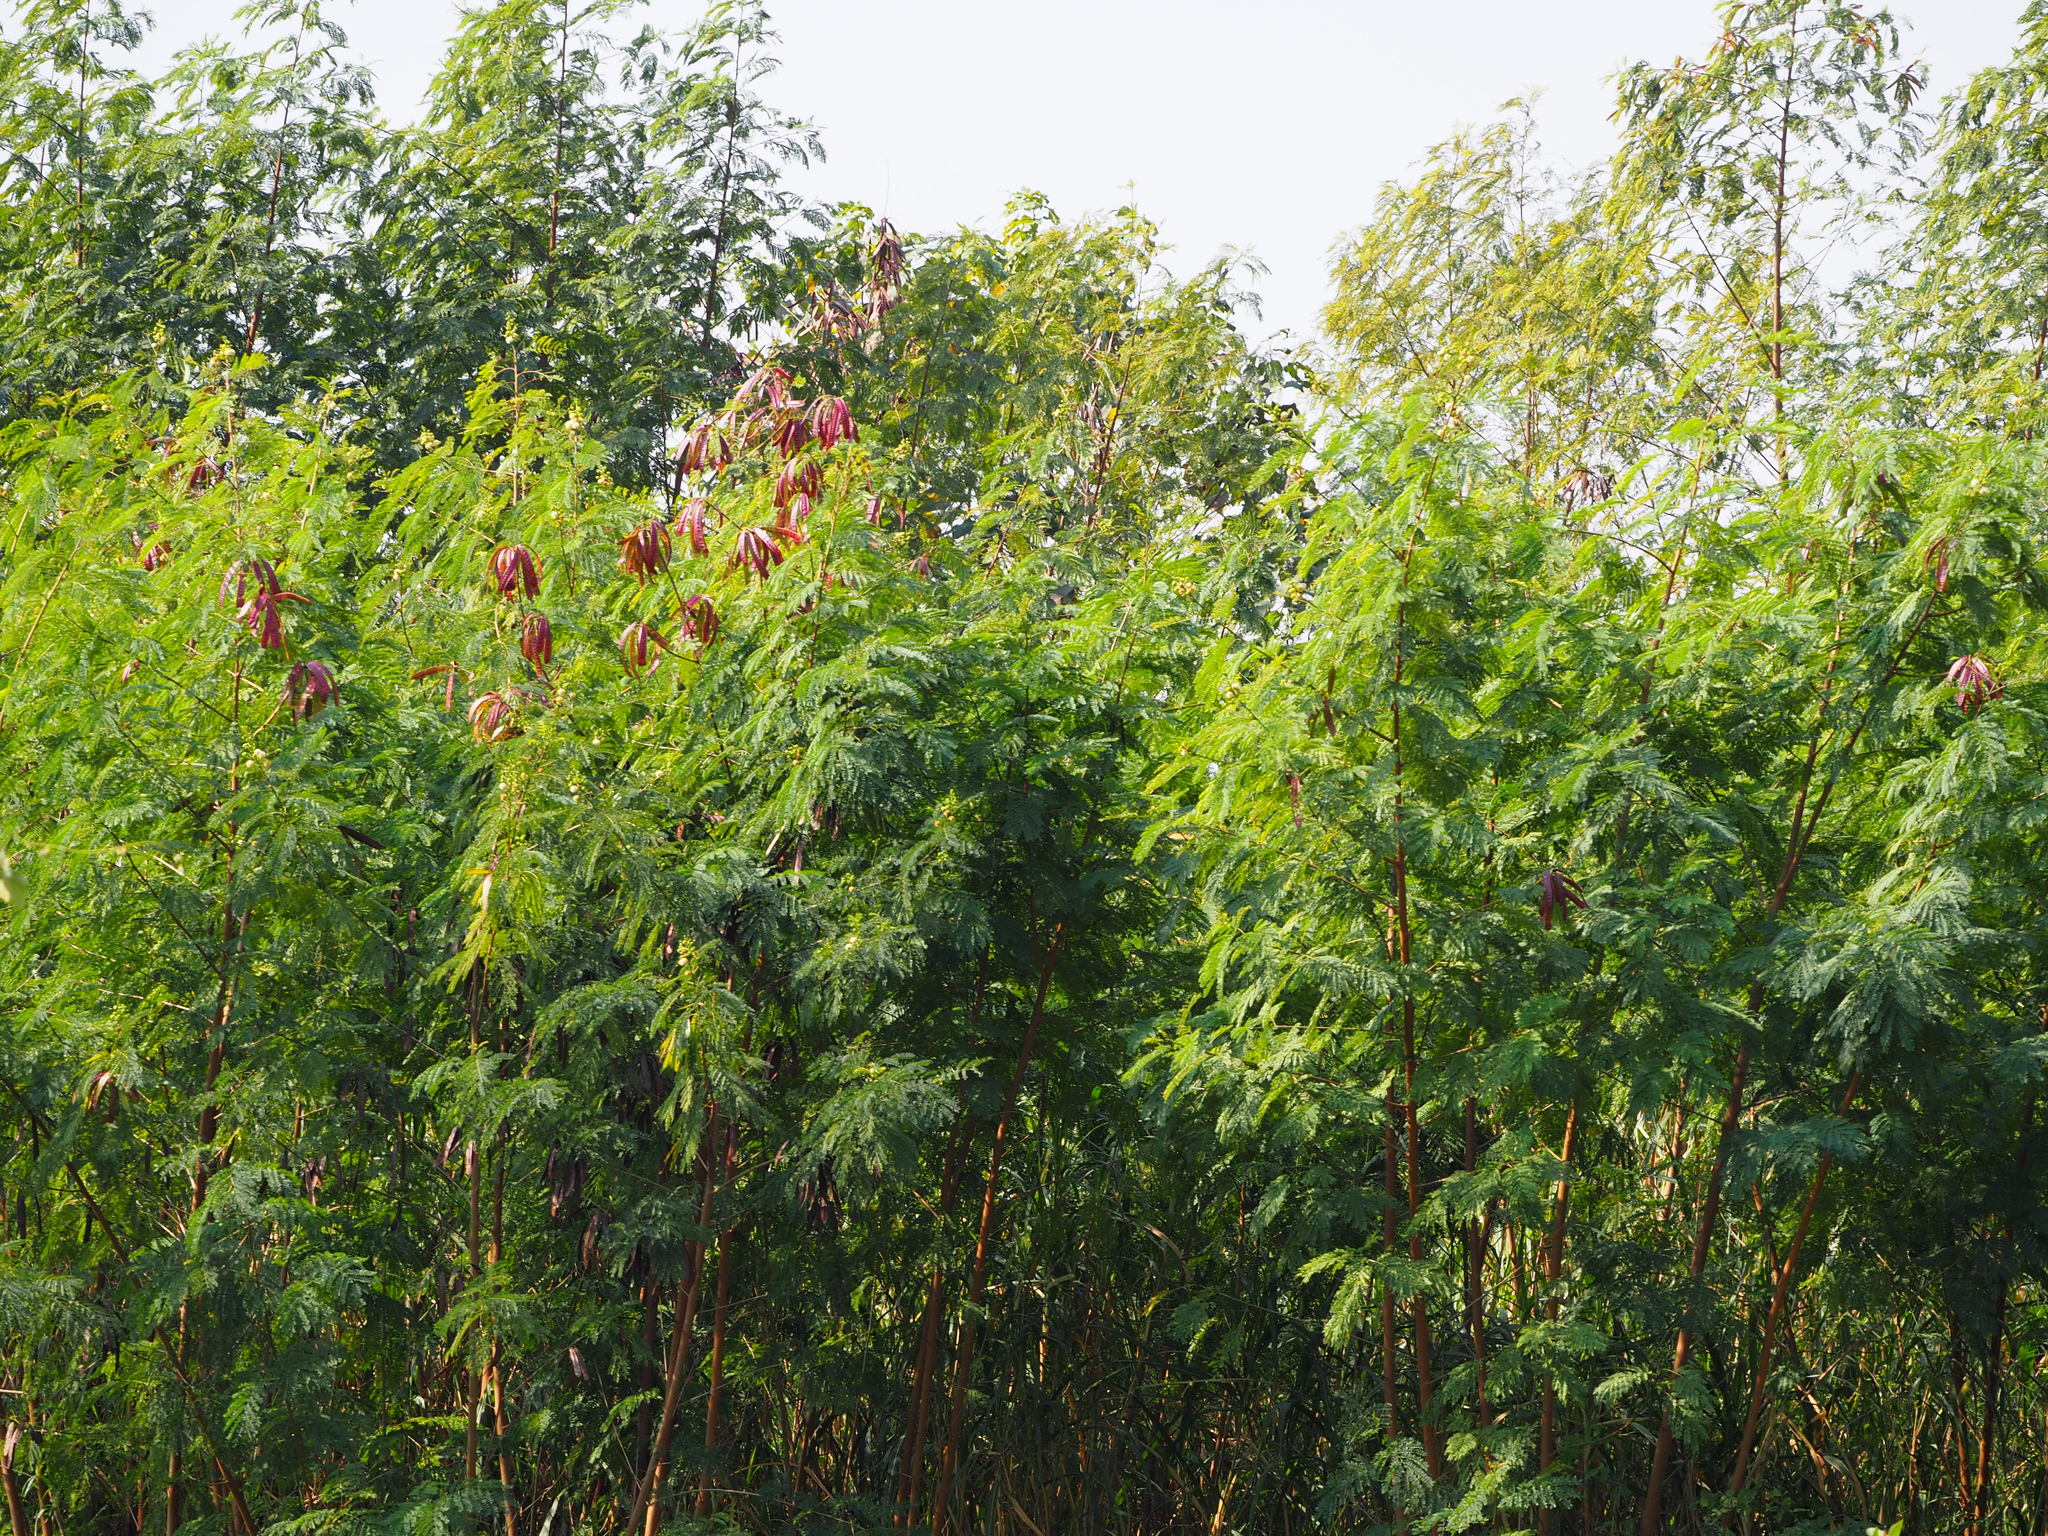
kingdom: Plantae
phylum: Tracheophyta
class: Magnoliopsida
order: Fabales
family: Fabaceae
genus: Leucaena
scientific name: Leucaena leucocephala
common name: White leadtree
